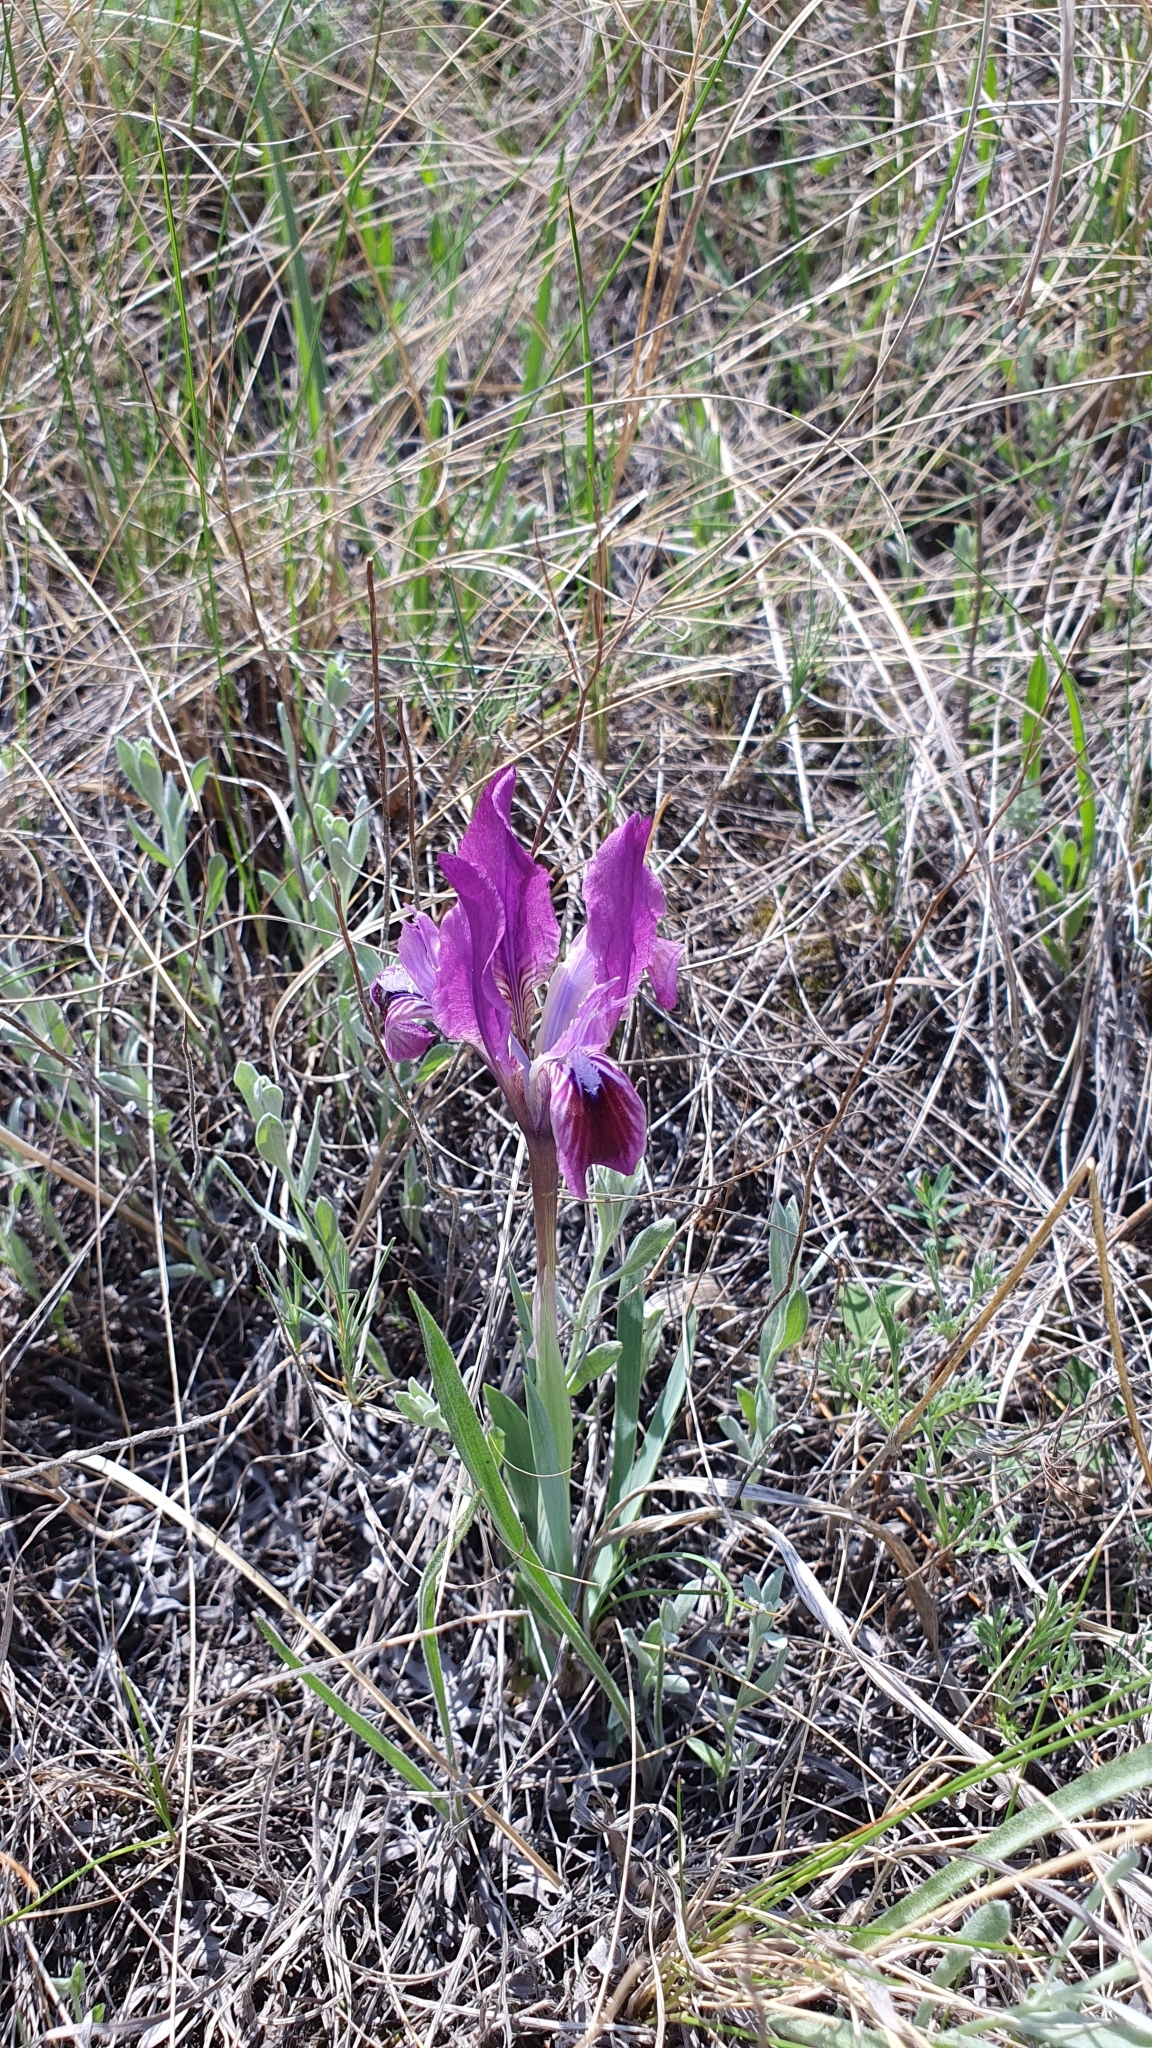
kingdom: Plantae
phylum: Tracheophyta
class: Liliopsida
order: Asparagales
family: Iridaceae
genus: Iris
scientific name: Iris pumila
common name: Dwarf iris
